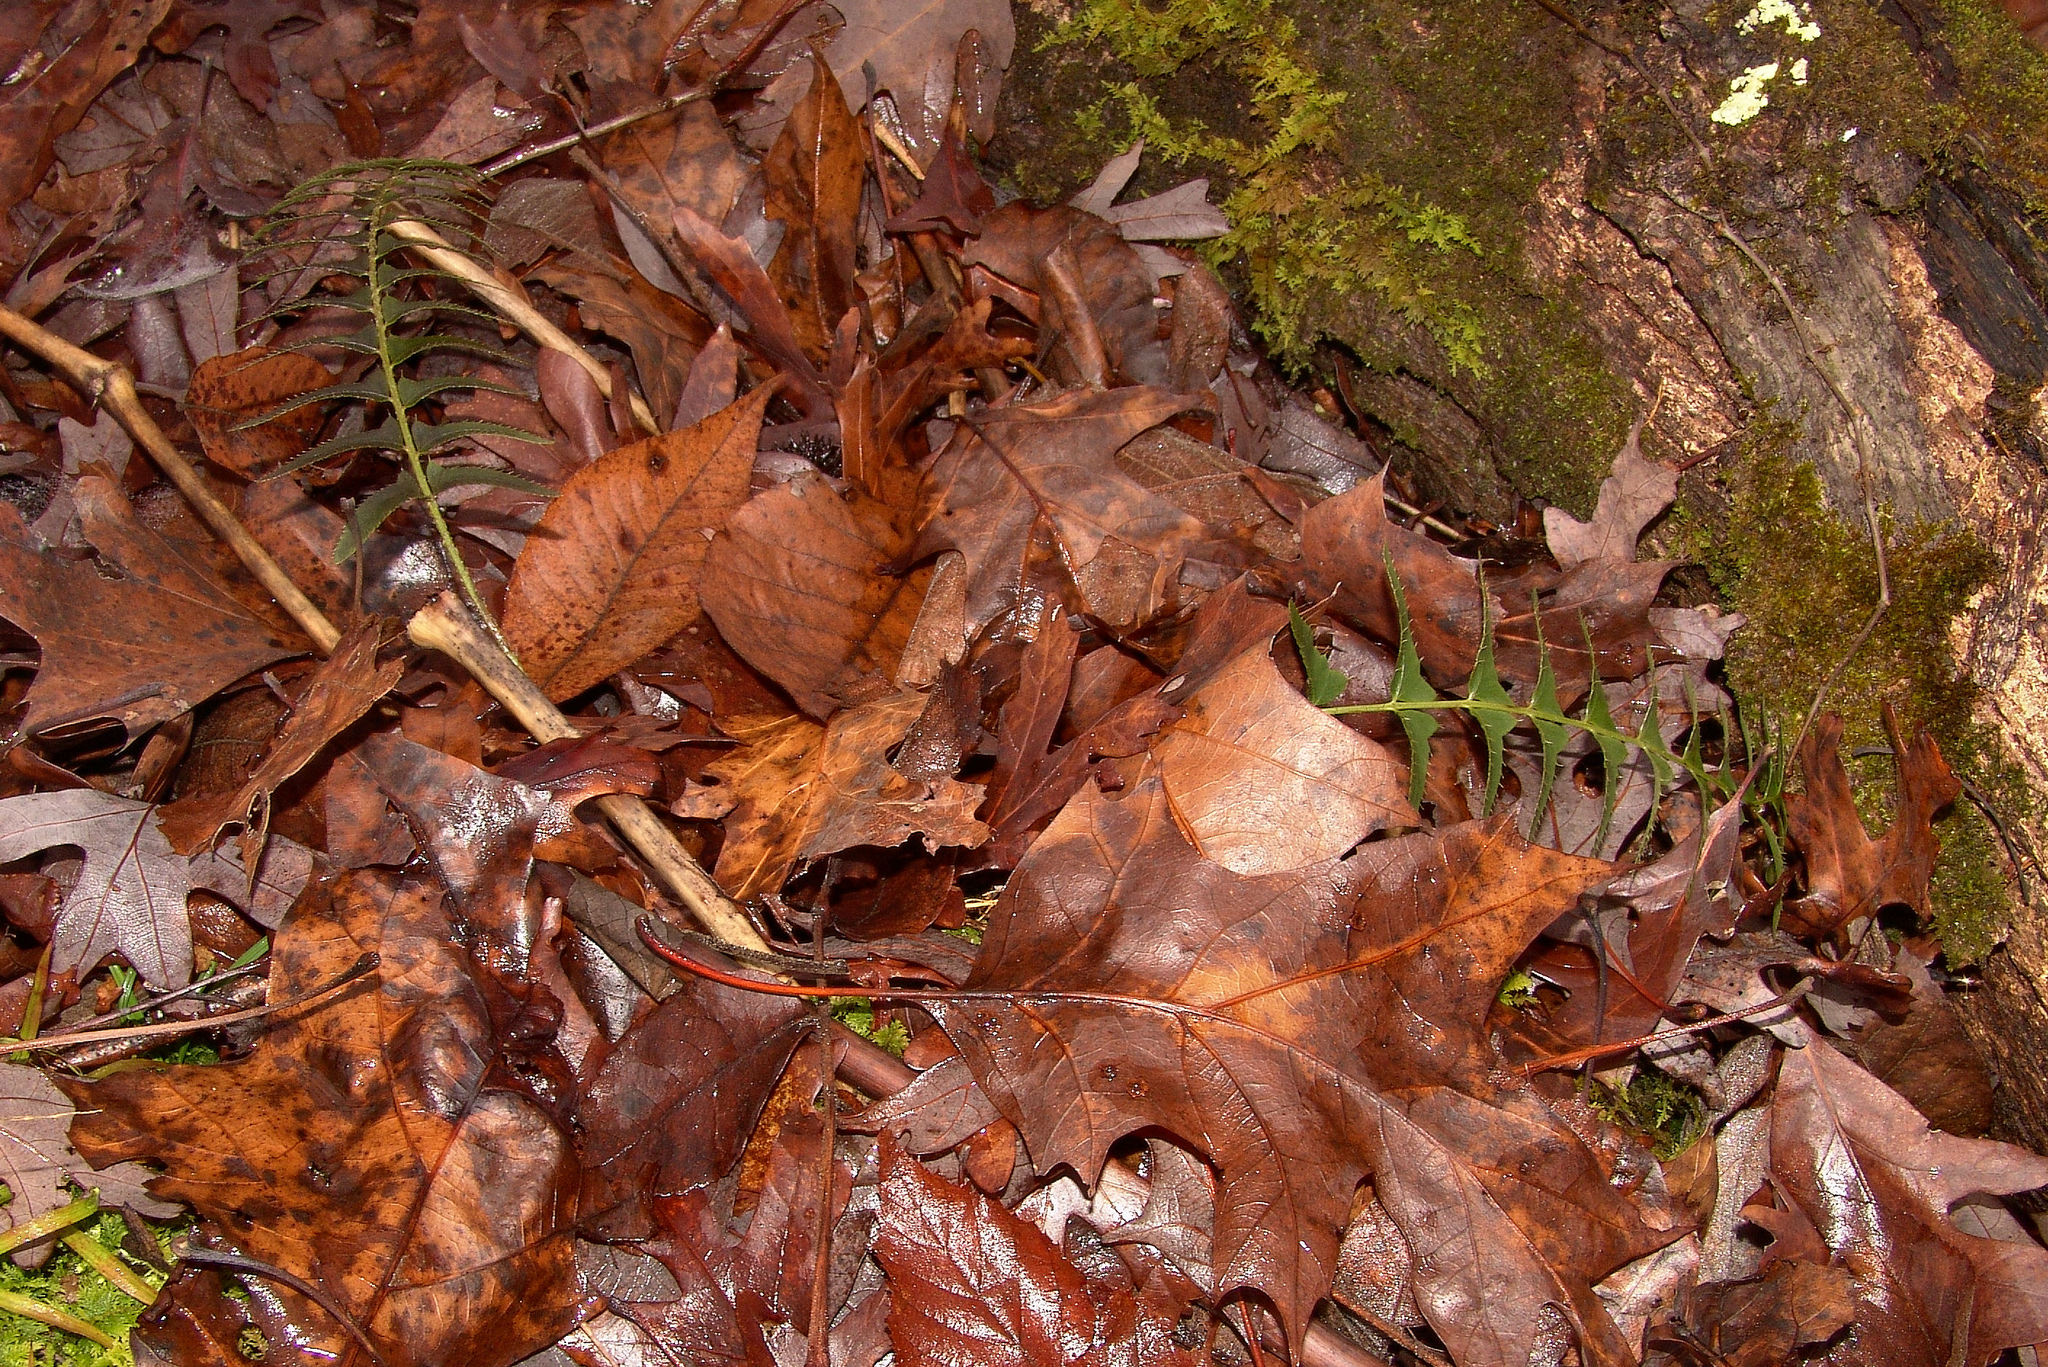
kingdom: Plantae
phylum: Tracheophyta
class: Polypodiopsida
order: Polypodiales
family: Dryopteridaceae
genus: Polystichum
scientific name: Polystichum acrostichoides
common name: Christmas fern
